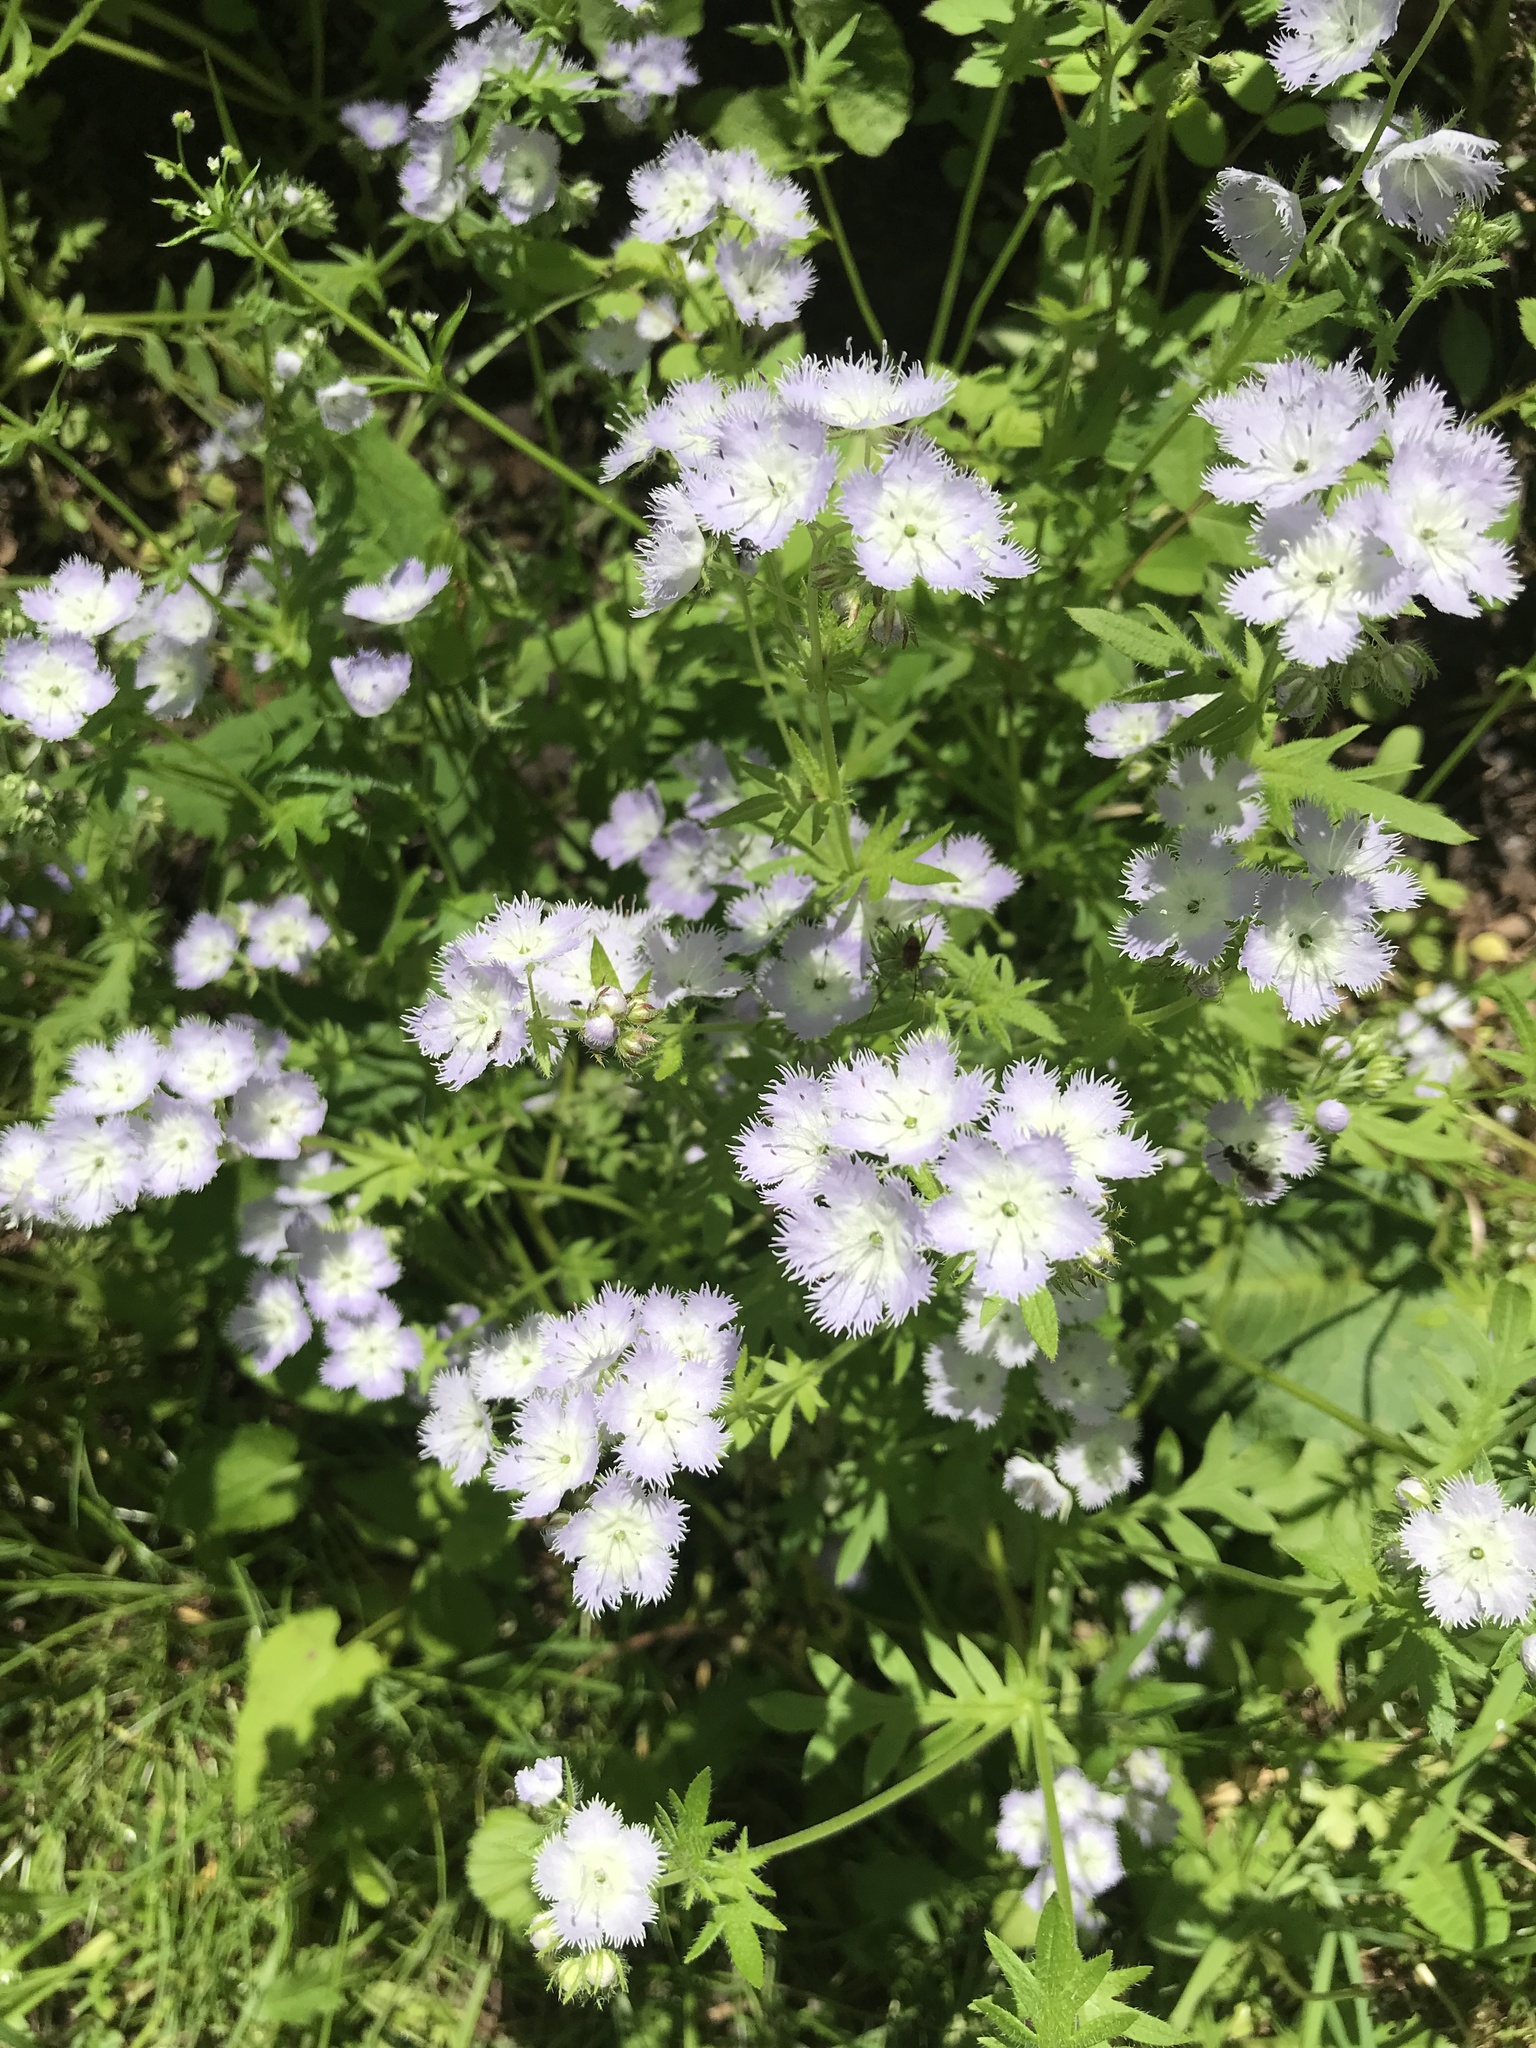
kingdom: Plantae
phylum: Tracheophyta
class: Magnoliopsida
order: Boraginales
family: Hydrophyllaceae
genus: Phacelia
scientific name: Phacelia purshii
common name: Miami-mist
